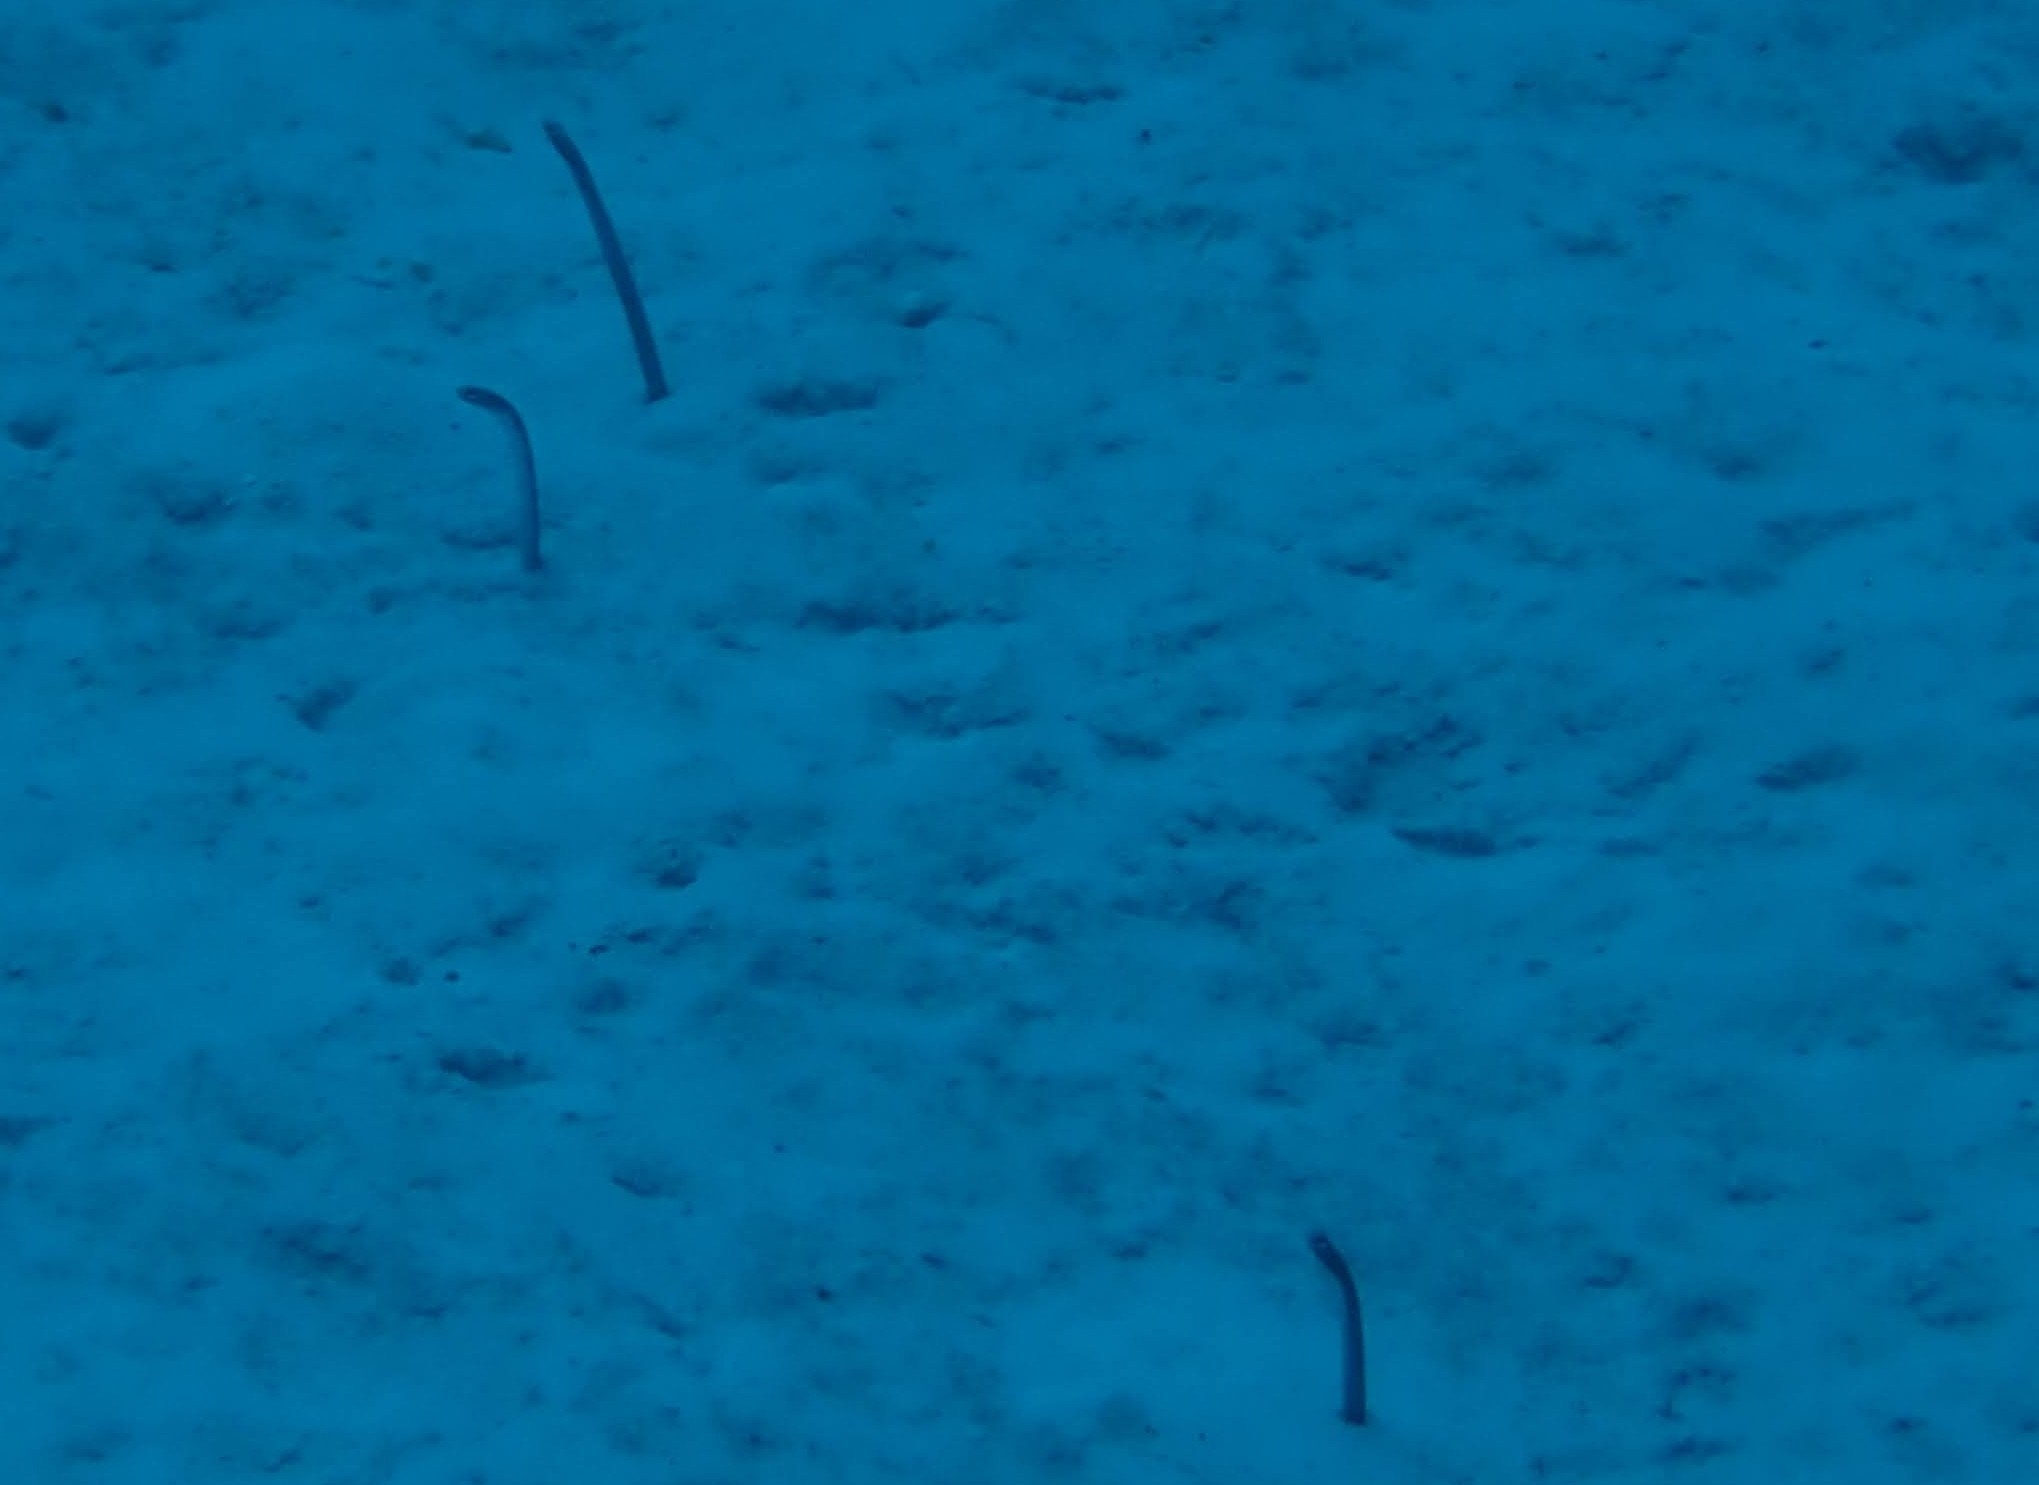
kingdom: Animalia
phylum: Chordata
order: Anguilliformes
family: Congridae
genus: Heteroconger
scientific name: Heteroconger longissimus
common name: Garden eel
